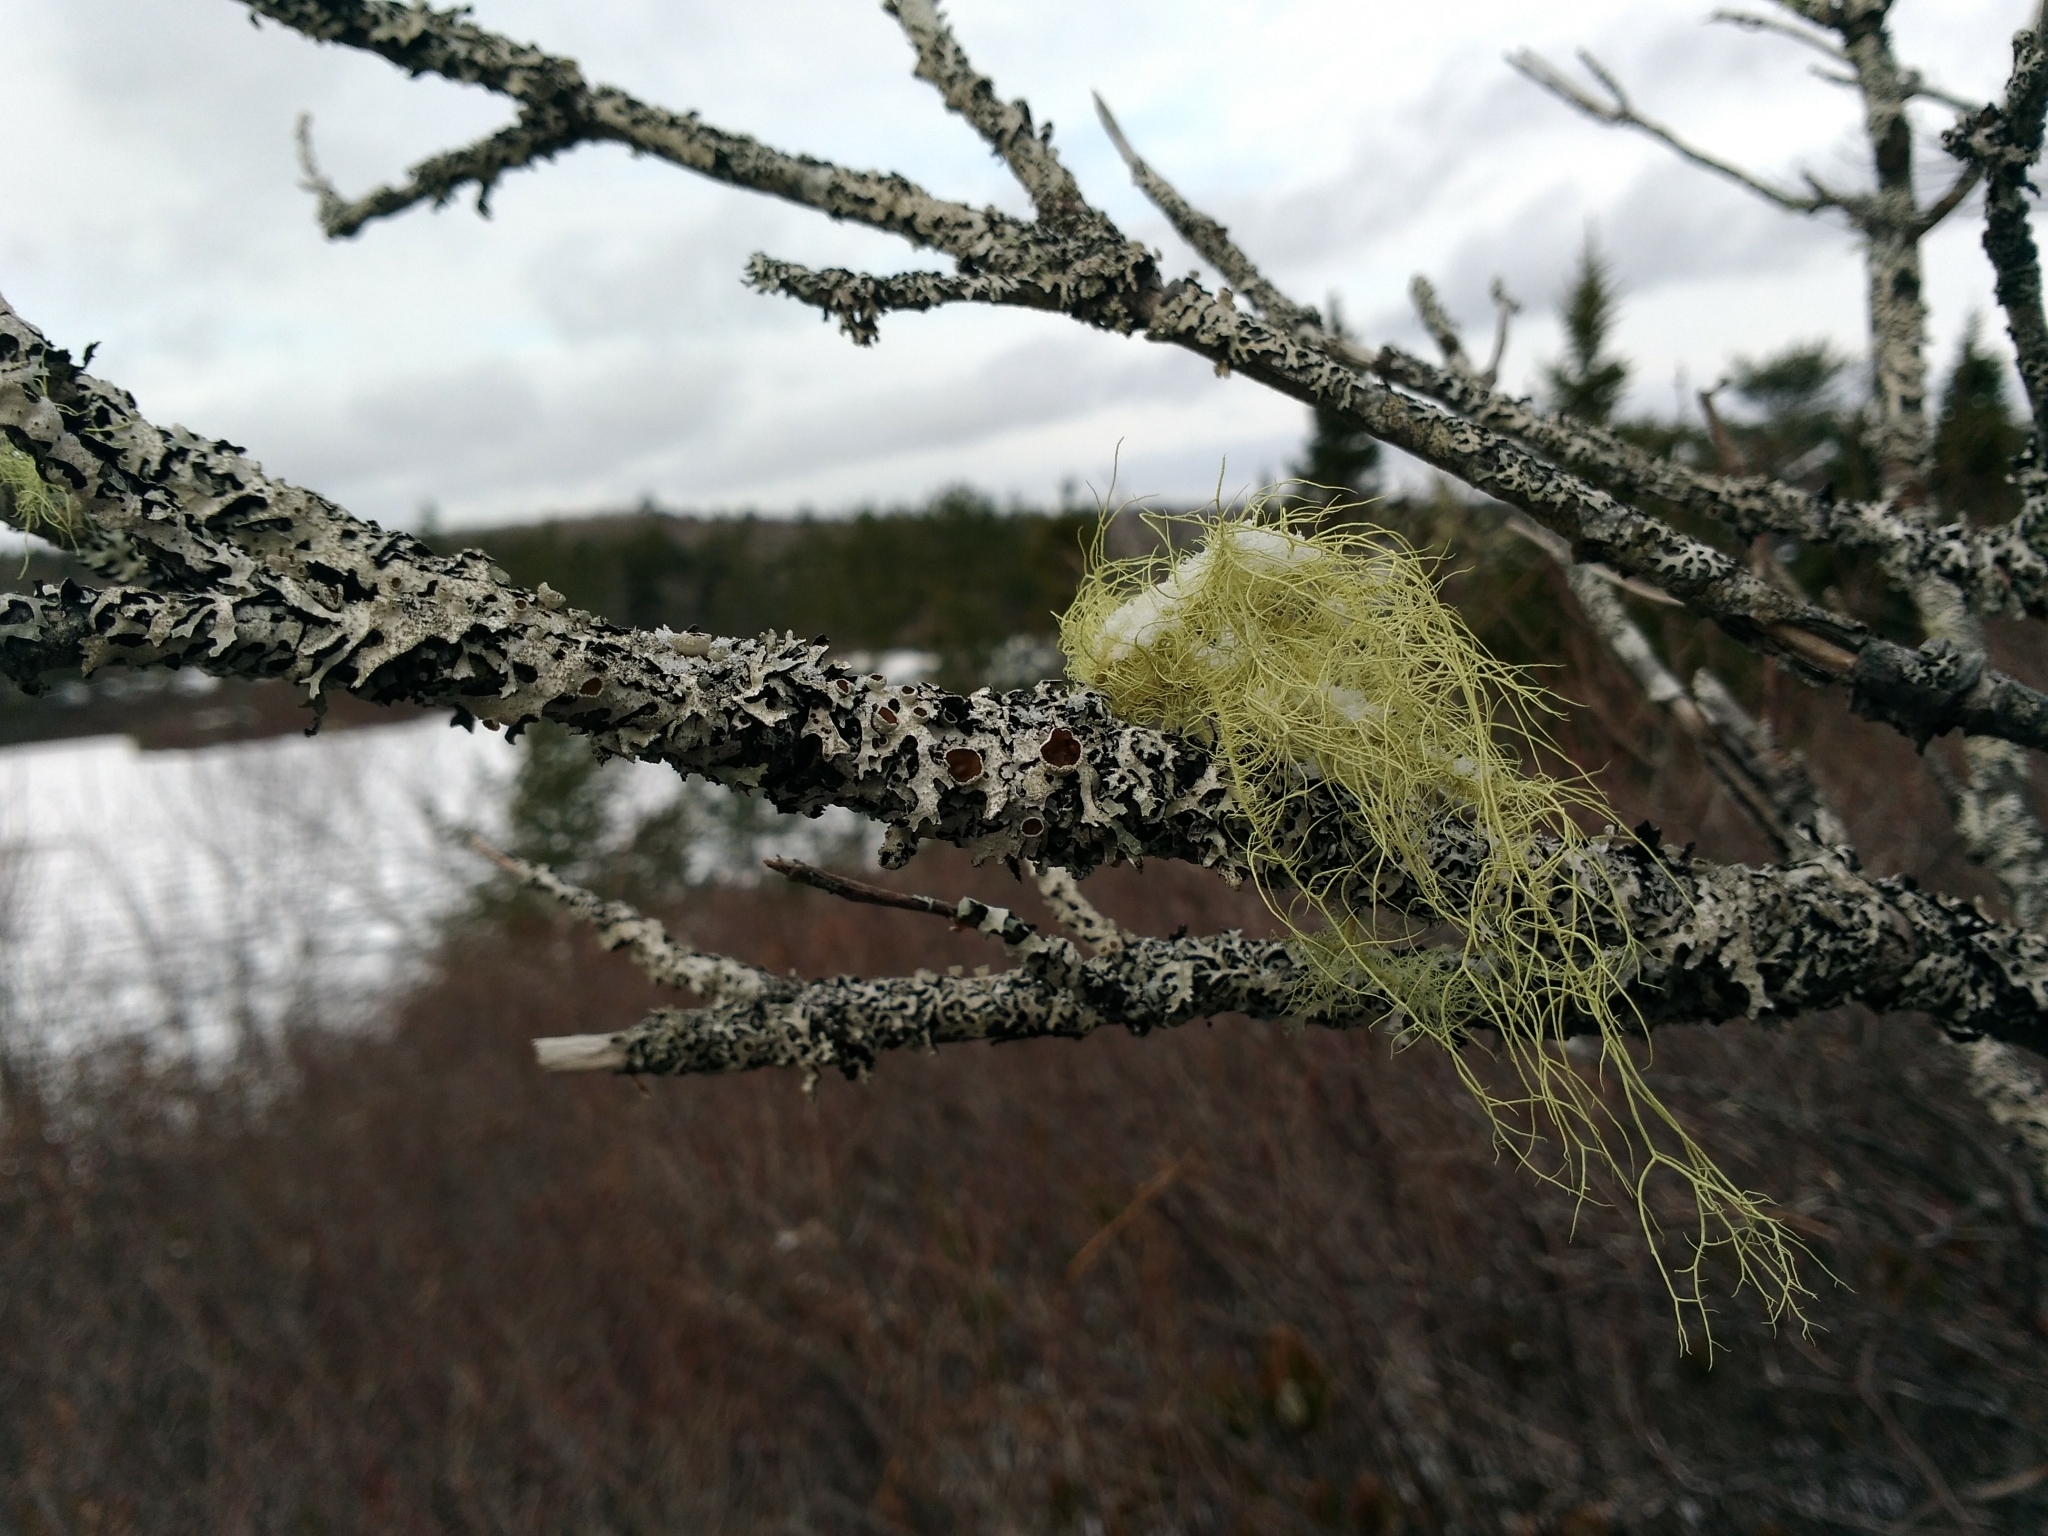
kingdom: Fungi
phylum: Ascomycota
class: Lecanoromycetes
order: Lecanorales
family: Parmeliaceae
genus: Usnea
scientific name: Usnea subfloridana
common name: Boreal beard lichen
